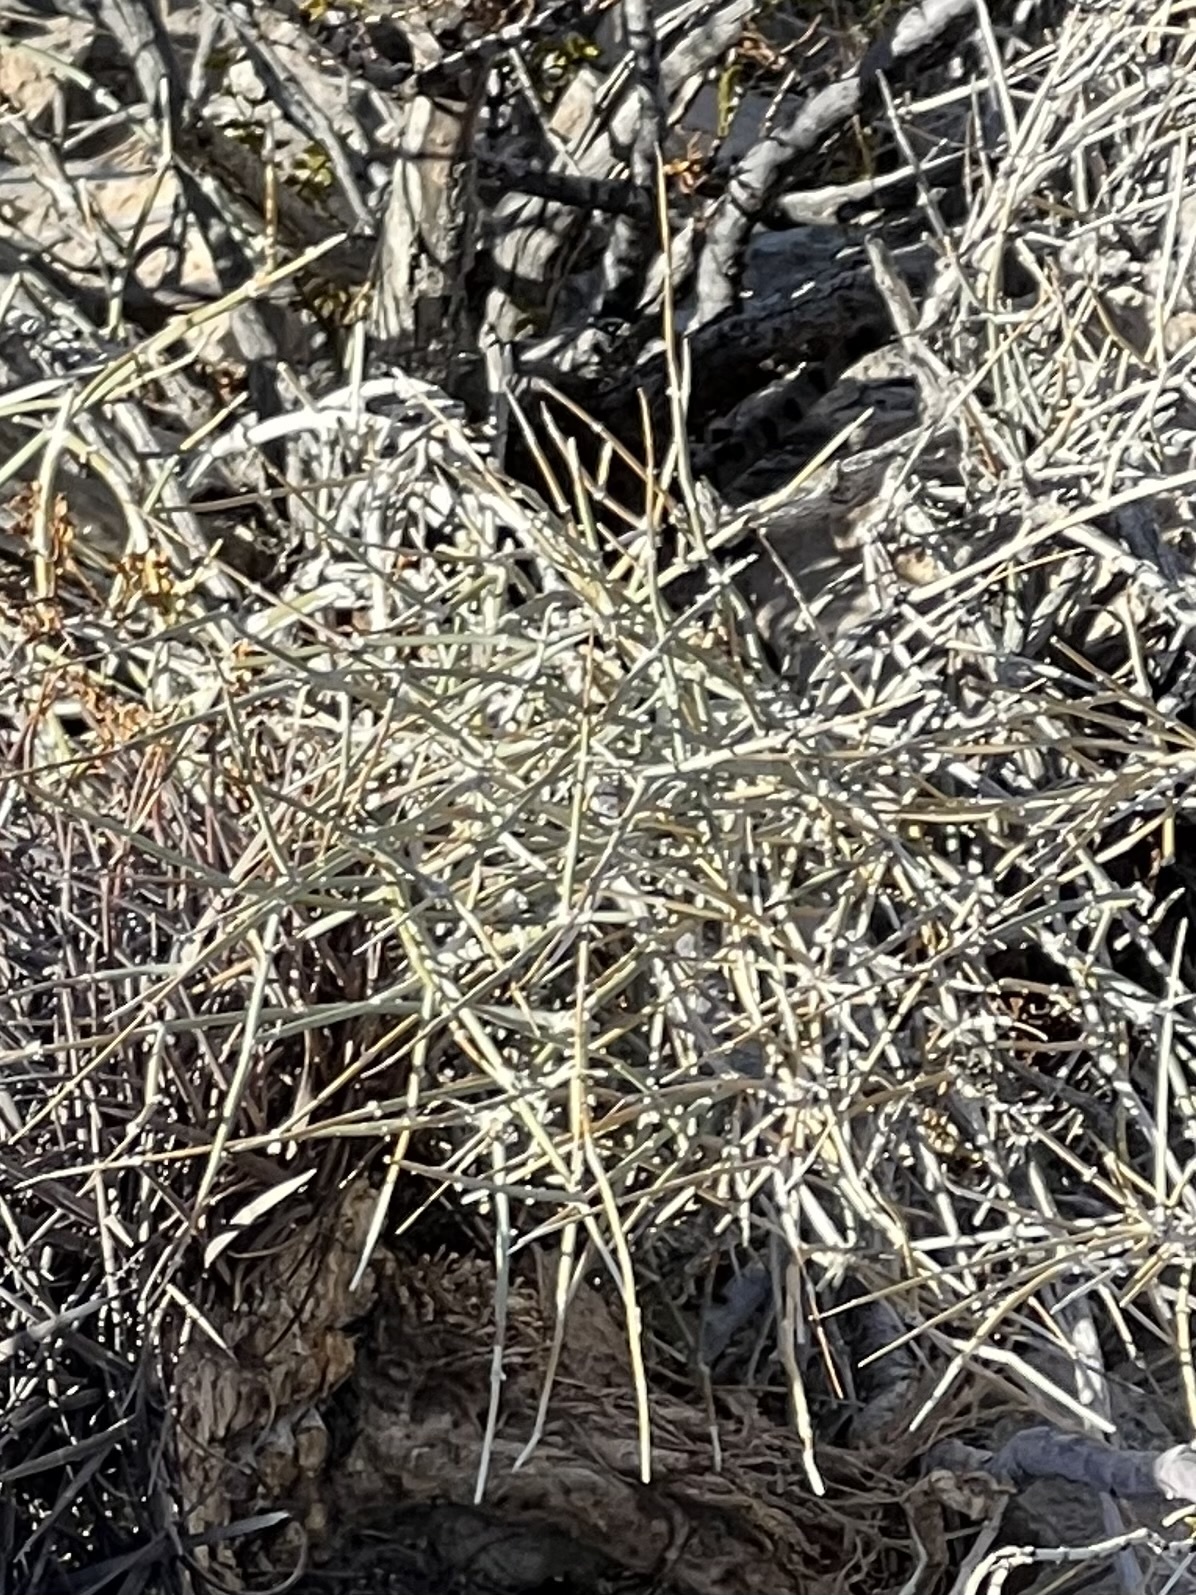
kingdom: Plantae
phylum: Tracheophyta
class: Gnetopsida
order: Ephedrales
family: Ephedraceae
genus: Ephedra
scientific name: Ephedra nevadensis
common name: Gray ephedra
